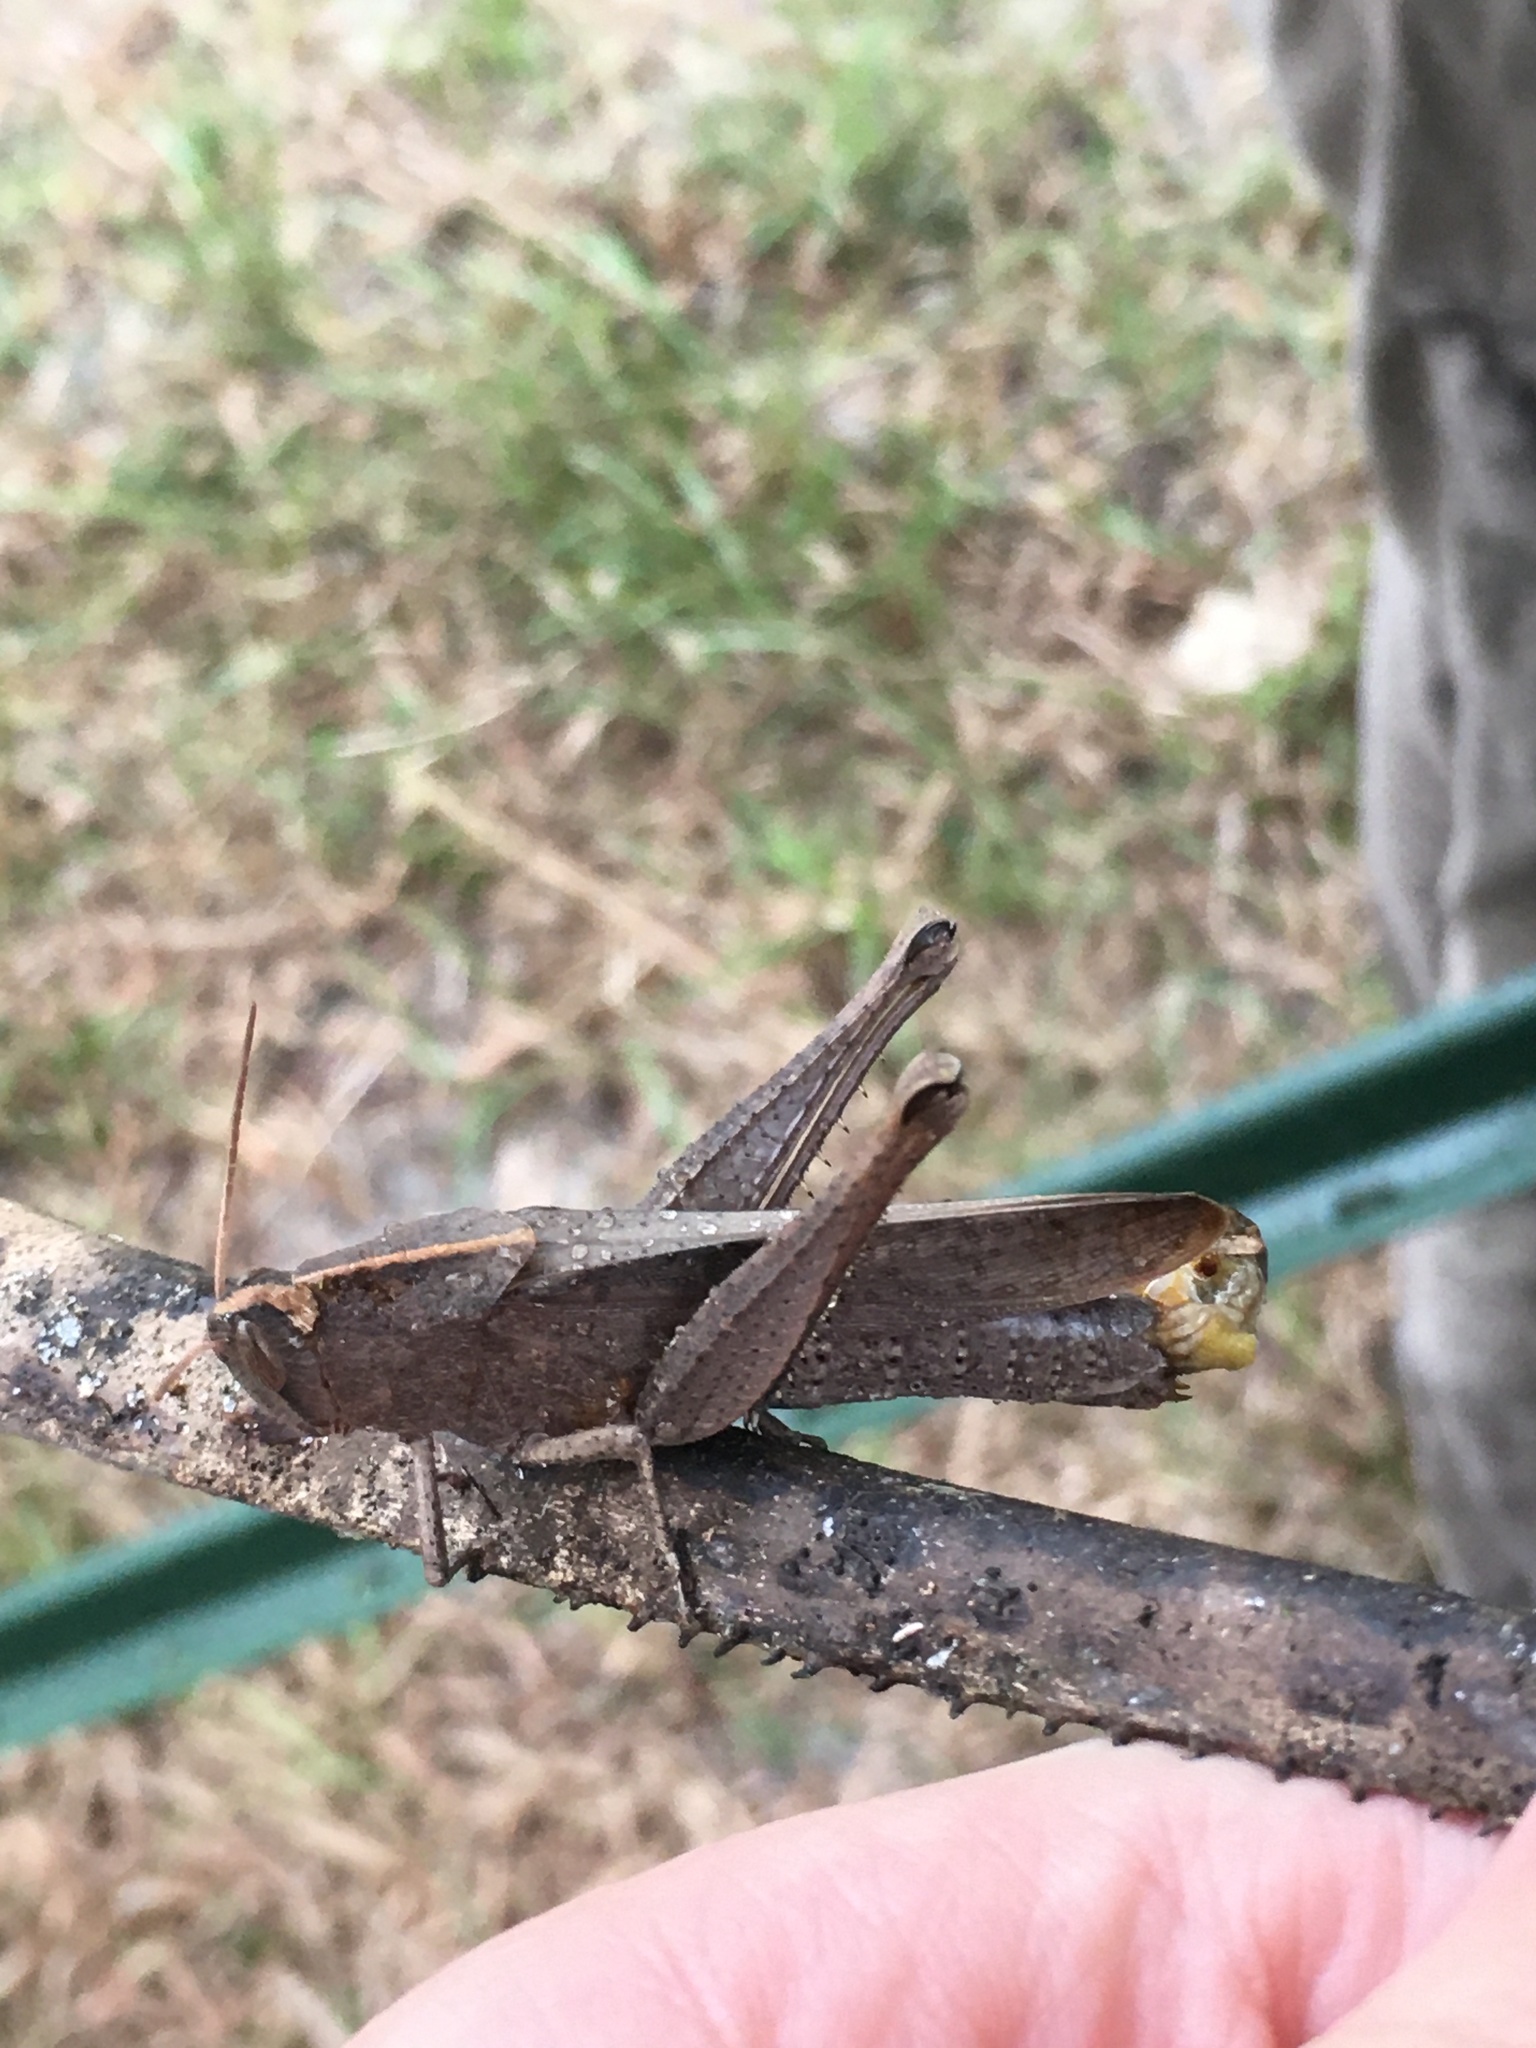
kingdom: Animalia
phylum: Arthropoda
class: Insecta
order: Orthoptera
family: Acrididae
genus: Schistocerca
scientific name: Schistocerca damnifica
